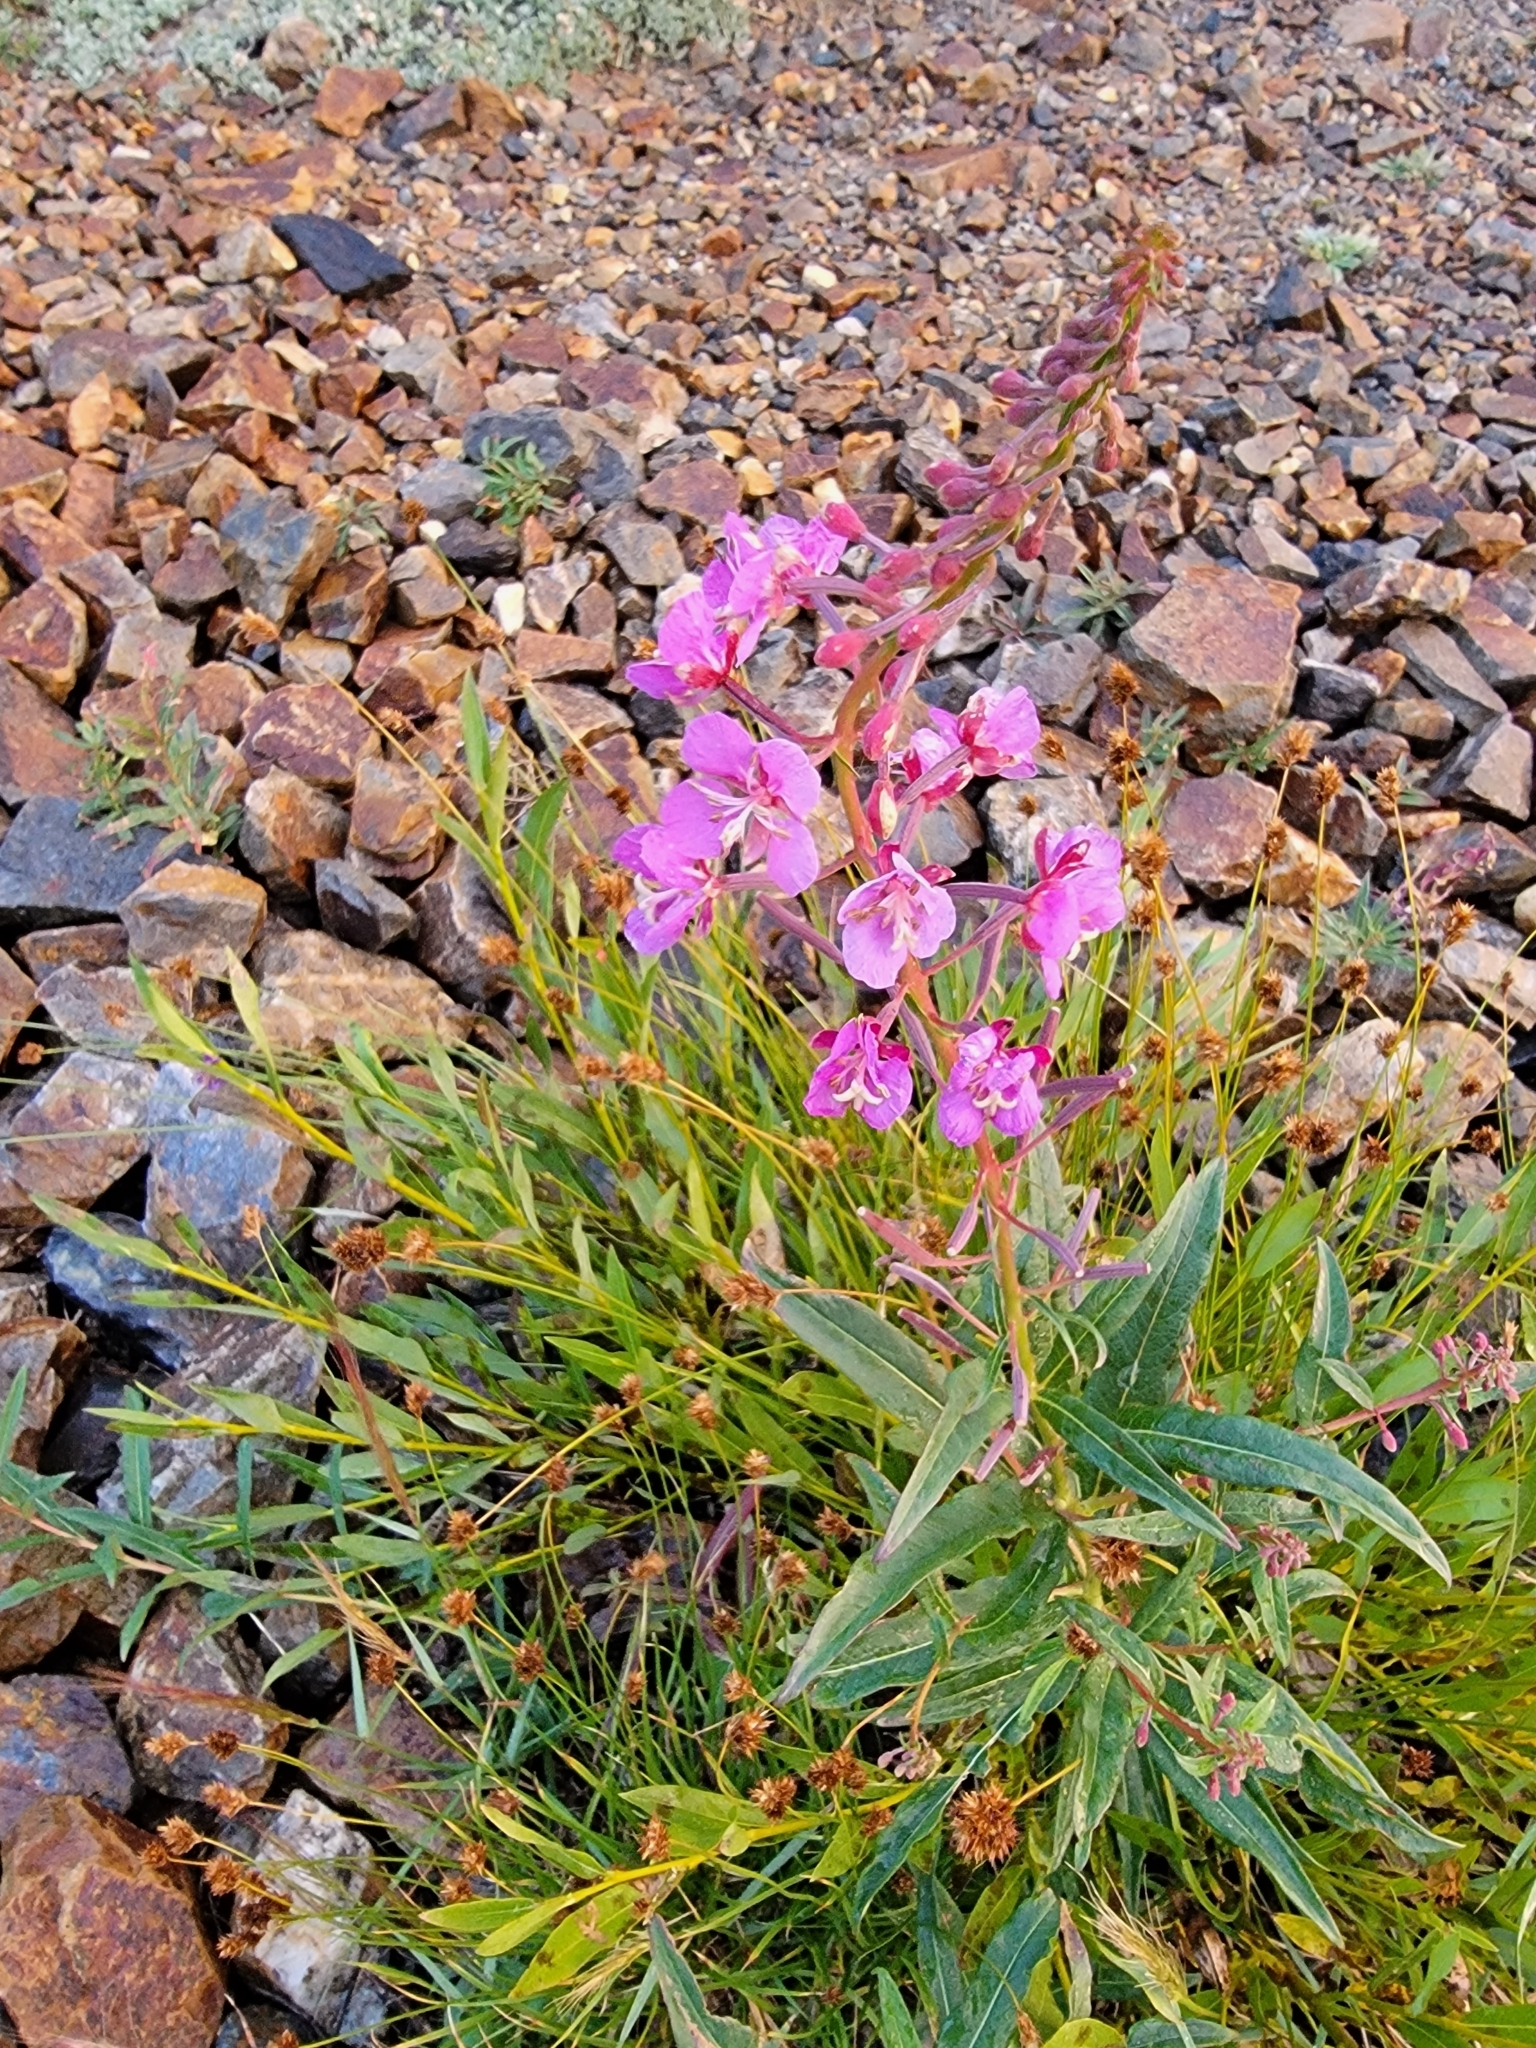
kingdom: Plantae
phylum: Tracheophyta
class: Magnoliopsida
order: Myrtales
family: Onagraceae
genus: Chamaenerion
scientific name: Chamaenerion angustifolium
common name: Fireweed
